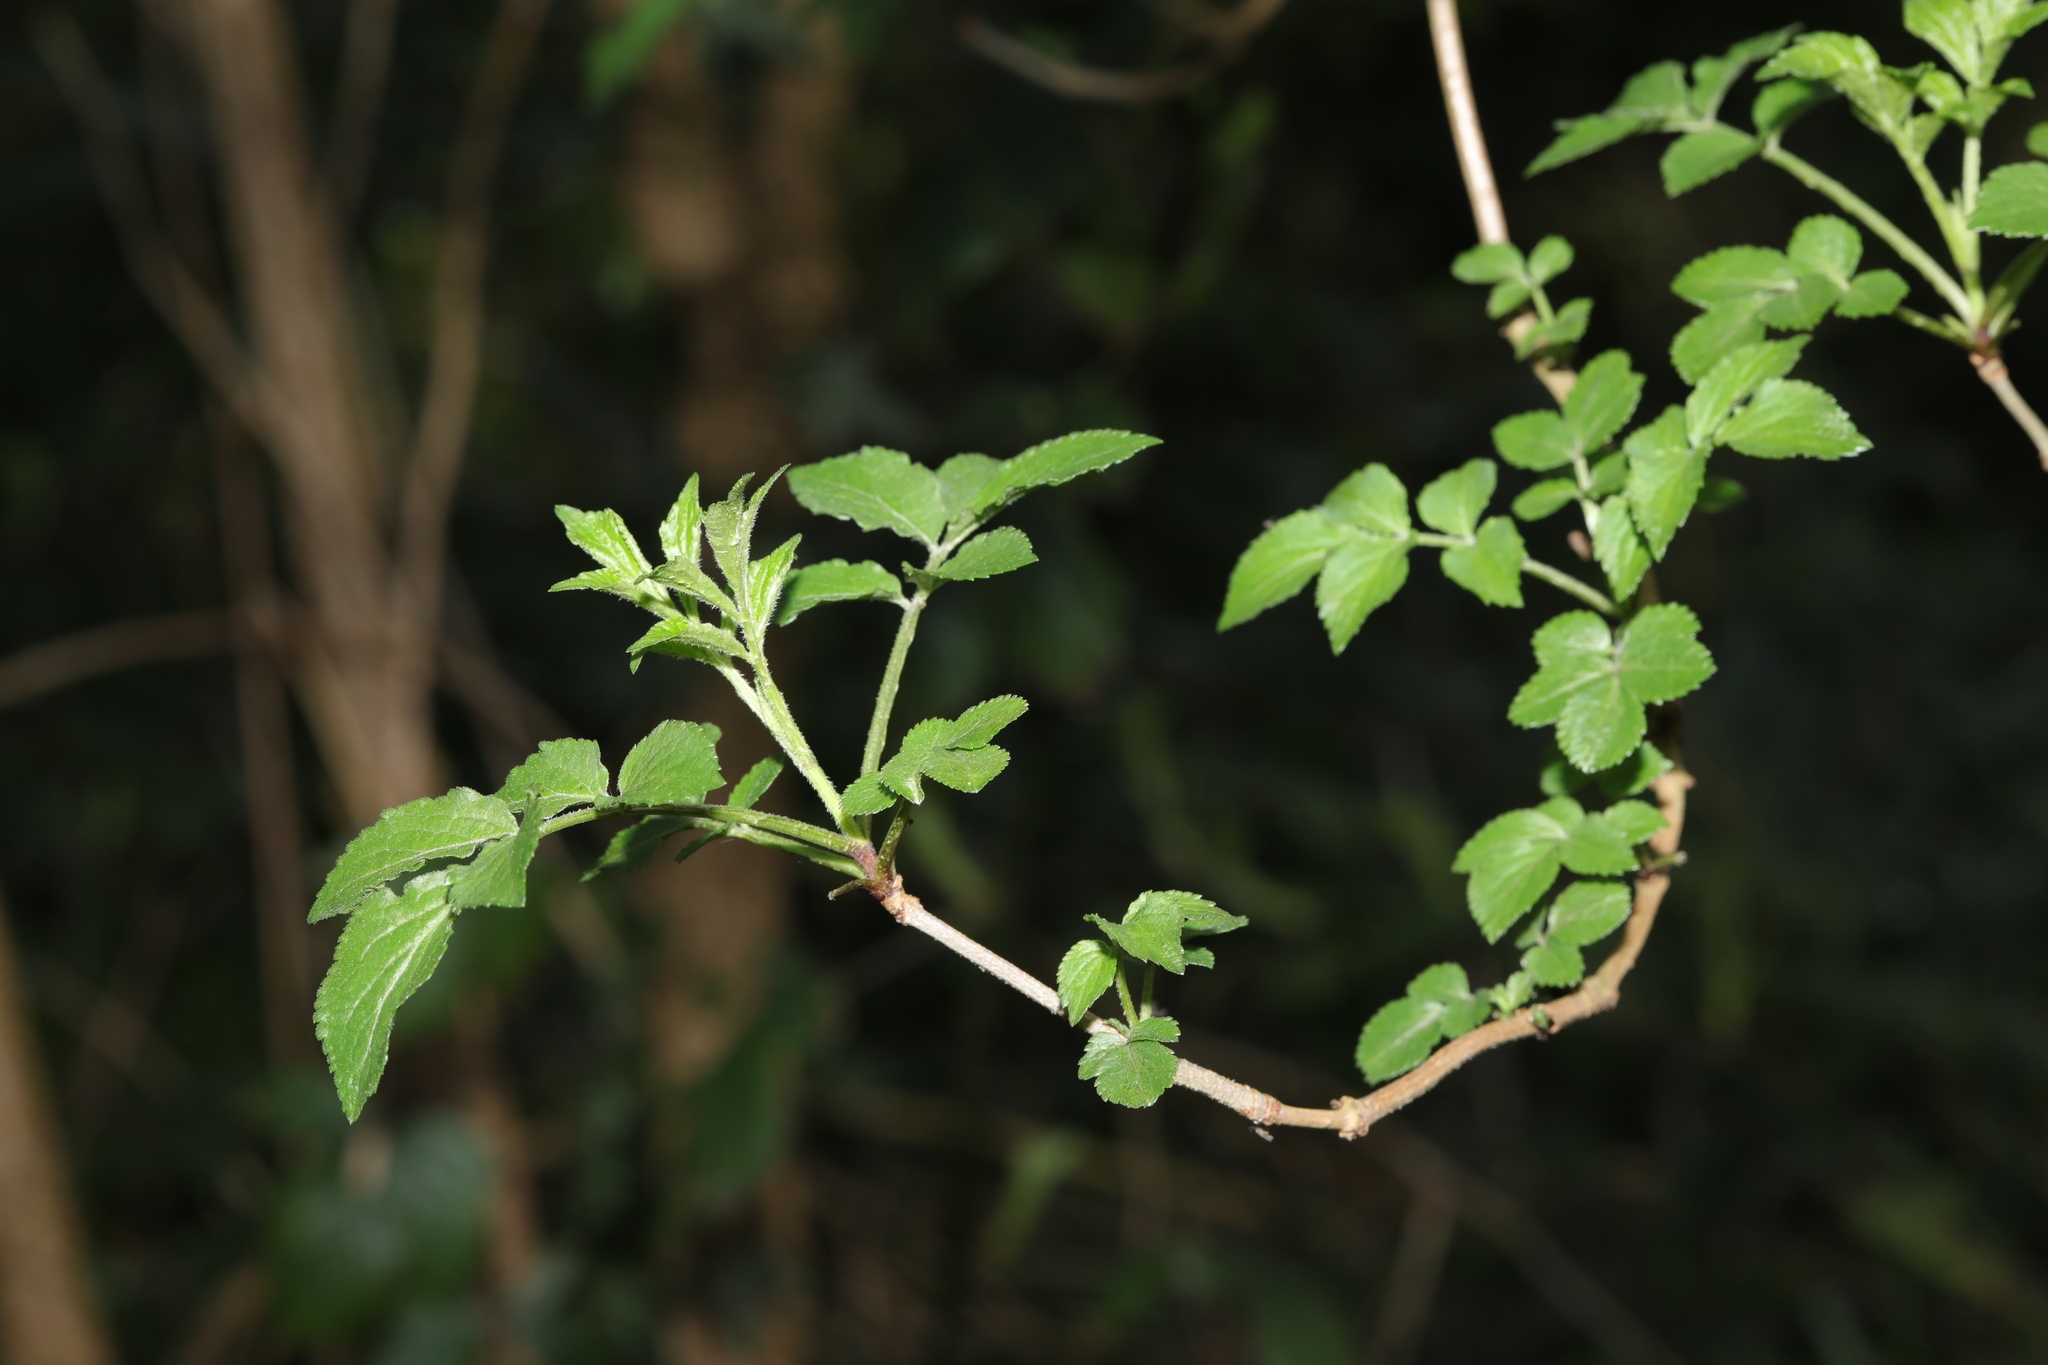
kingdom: Plantae
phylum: Tracheophyta
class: Magnoliopsida
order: Dipsacales
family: Viburnaceae
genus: Sambucus
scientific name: Sambucus nigra
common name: Elder
